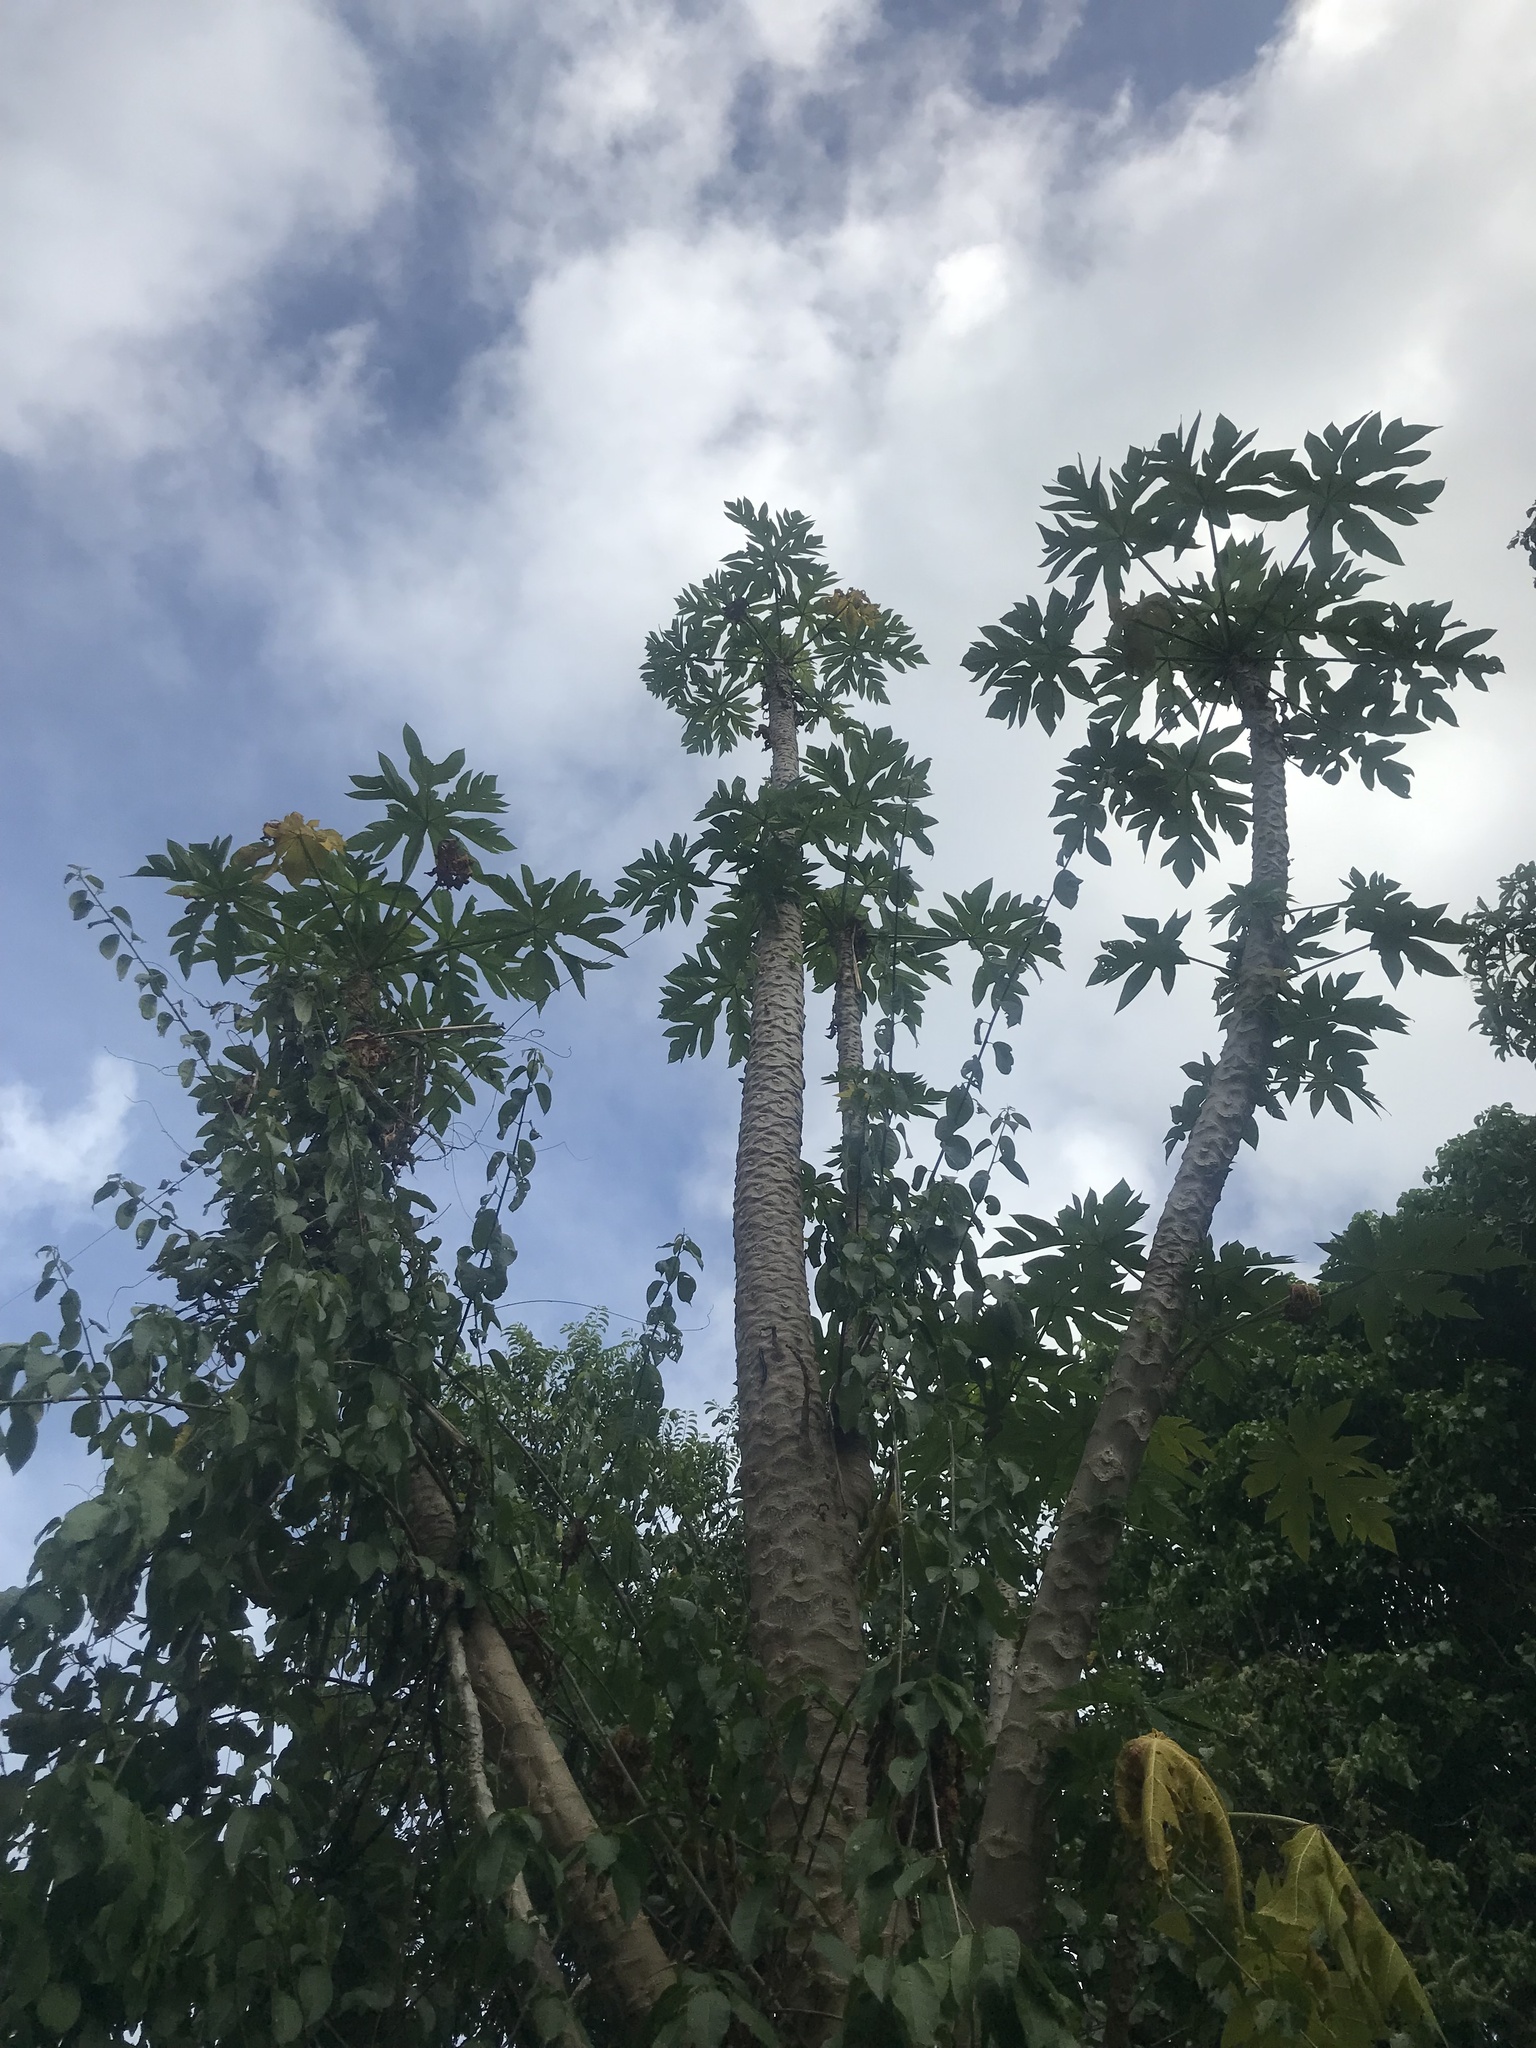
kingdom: Plantae
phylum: Tracheophyta
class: Magnoliopsida
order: Brassicales
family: Caricaceae
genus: Carica
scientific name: Carica papaya
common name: Papaya
